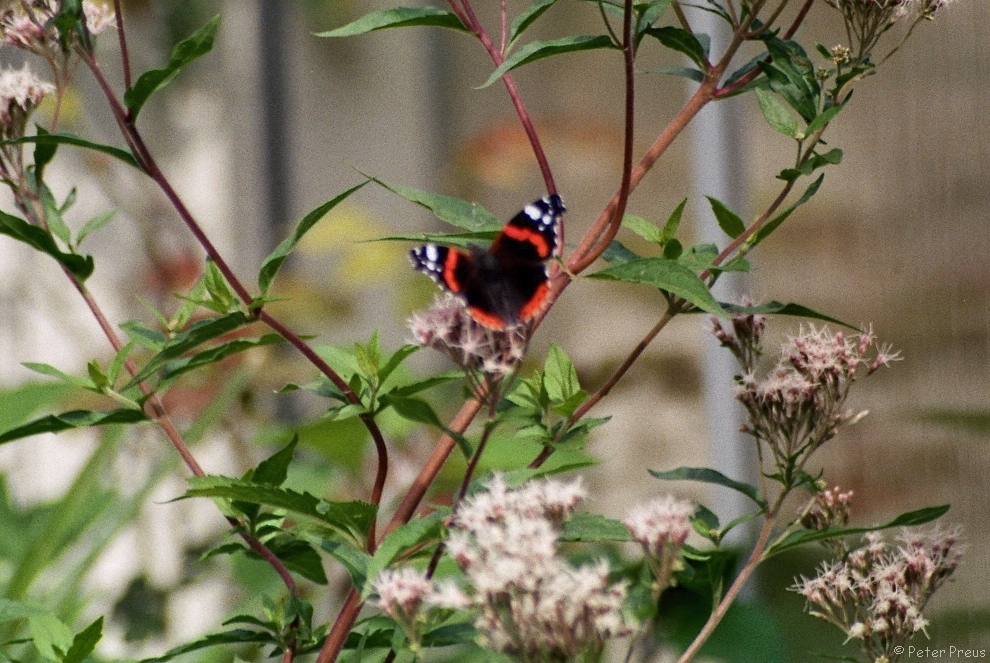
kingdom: Animalia
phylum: Arthropoda
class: Insecta
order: Lepidoptera
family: Nymphalidae
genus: Vanessa
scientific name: Vanessa atalanta
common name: Red admiral
